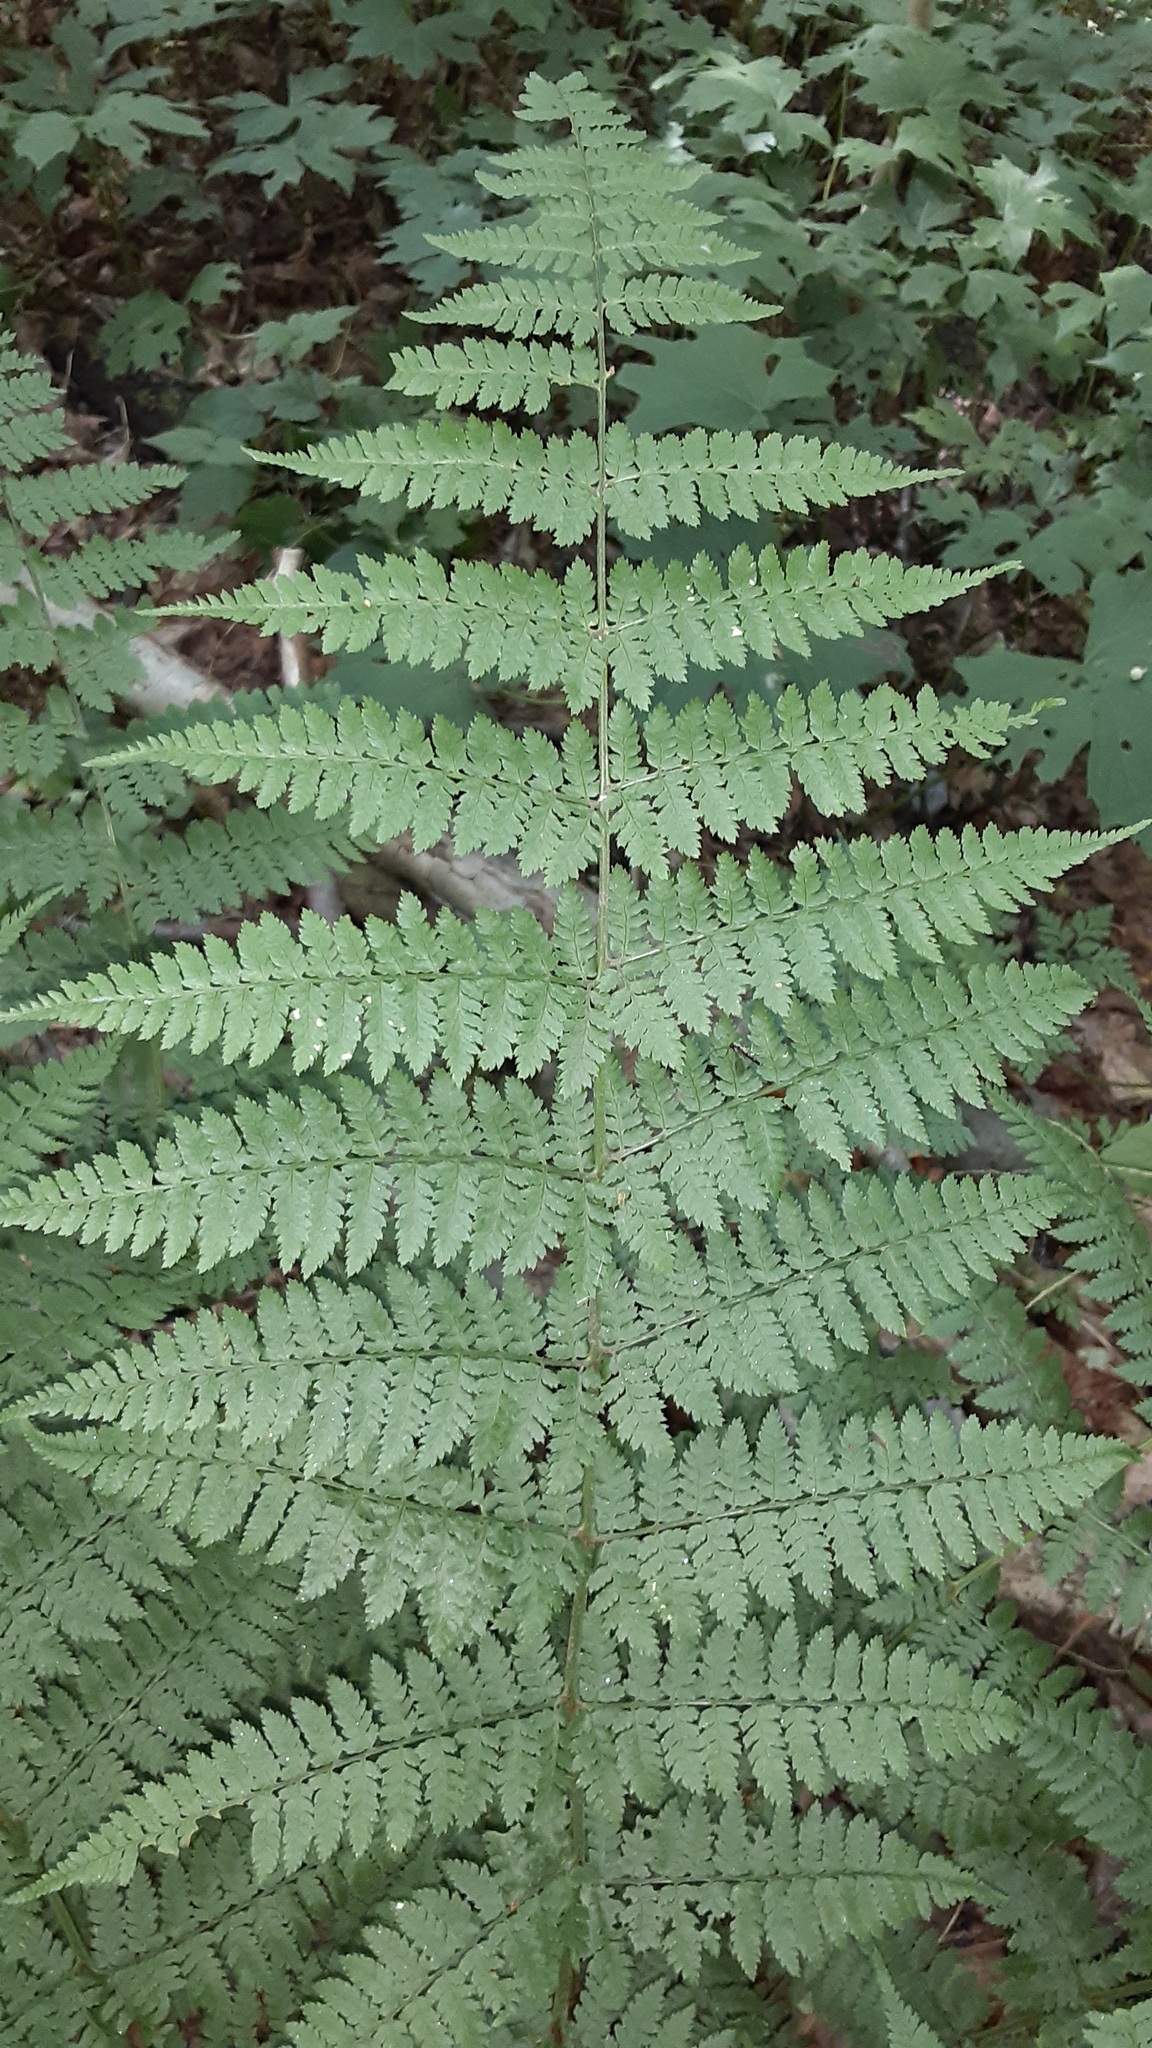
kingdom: Plantae
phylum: Tracheophyta
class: Polypodiopsida
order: Polypodiales
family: Dryopteridaceae
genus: Dryopteris
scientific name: Dryopteris intermedia
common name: Evergreen wood fern
